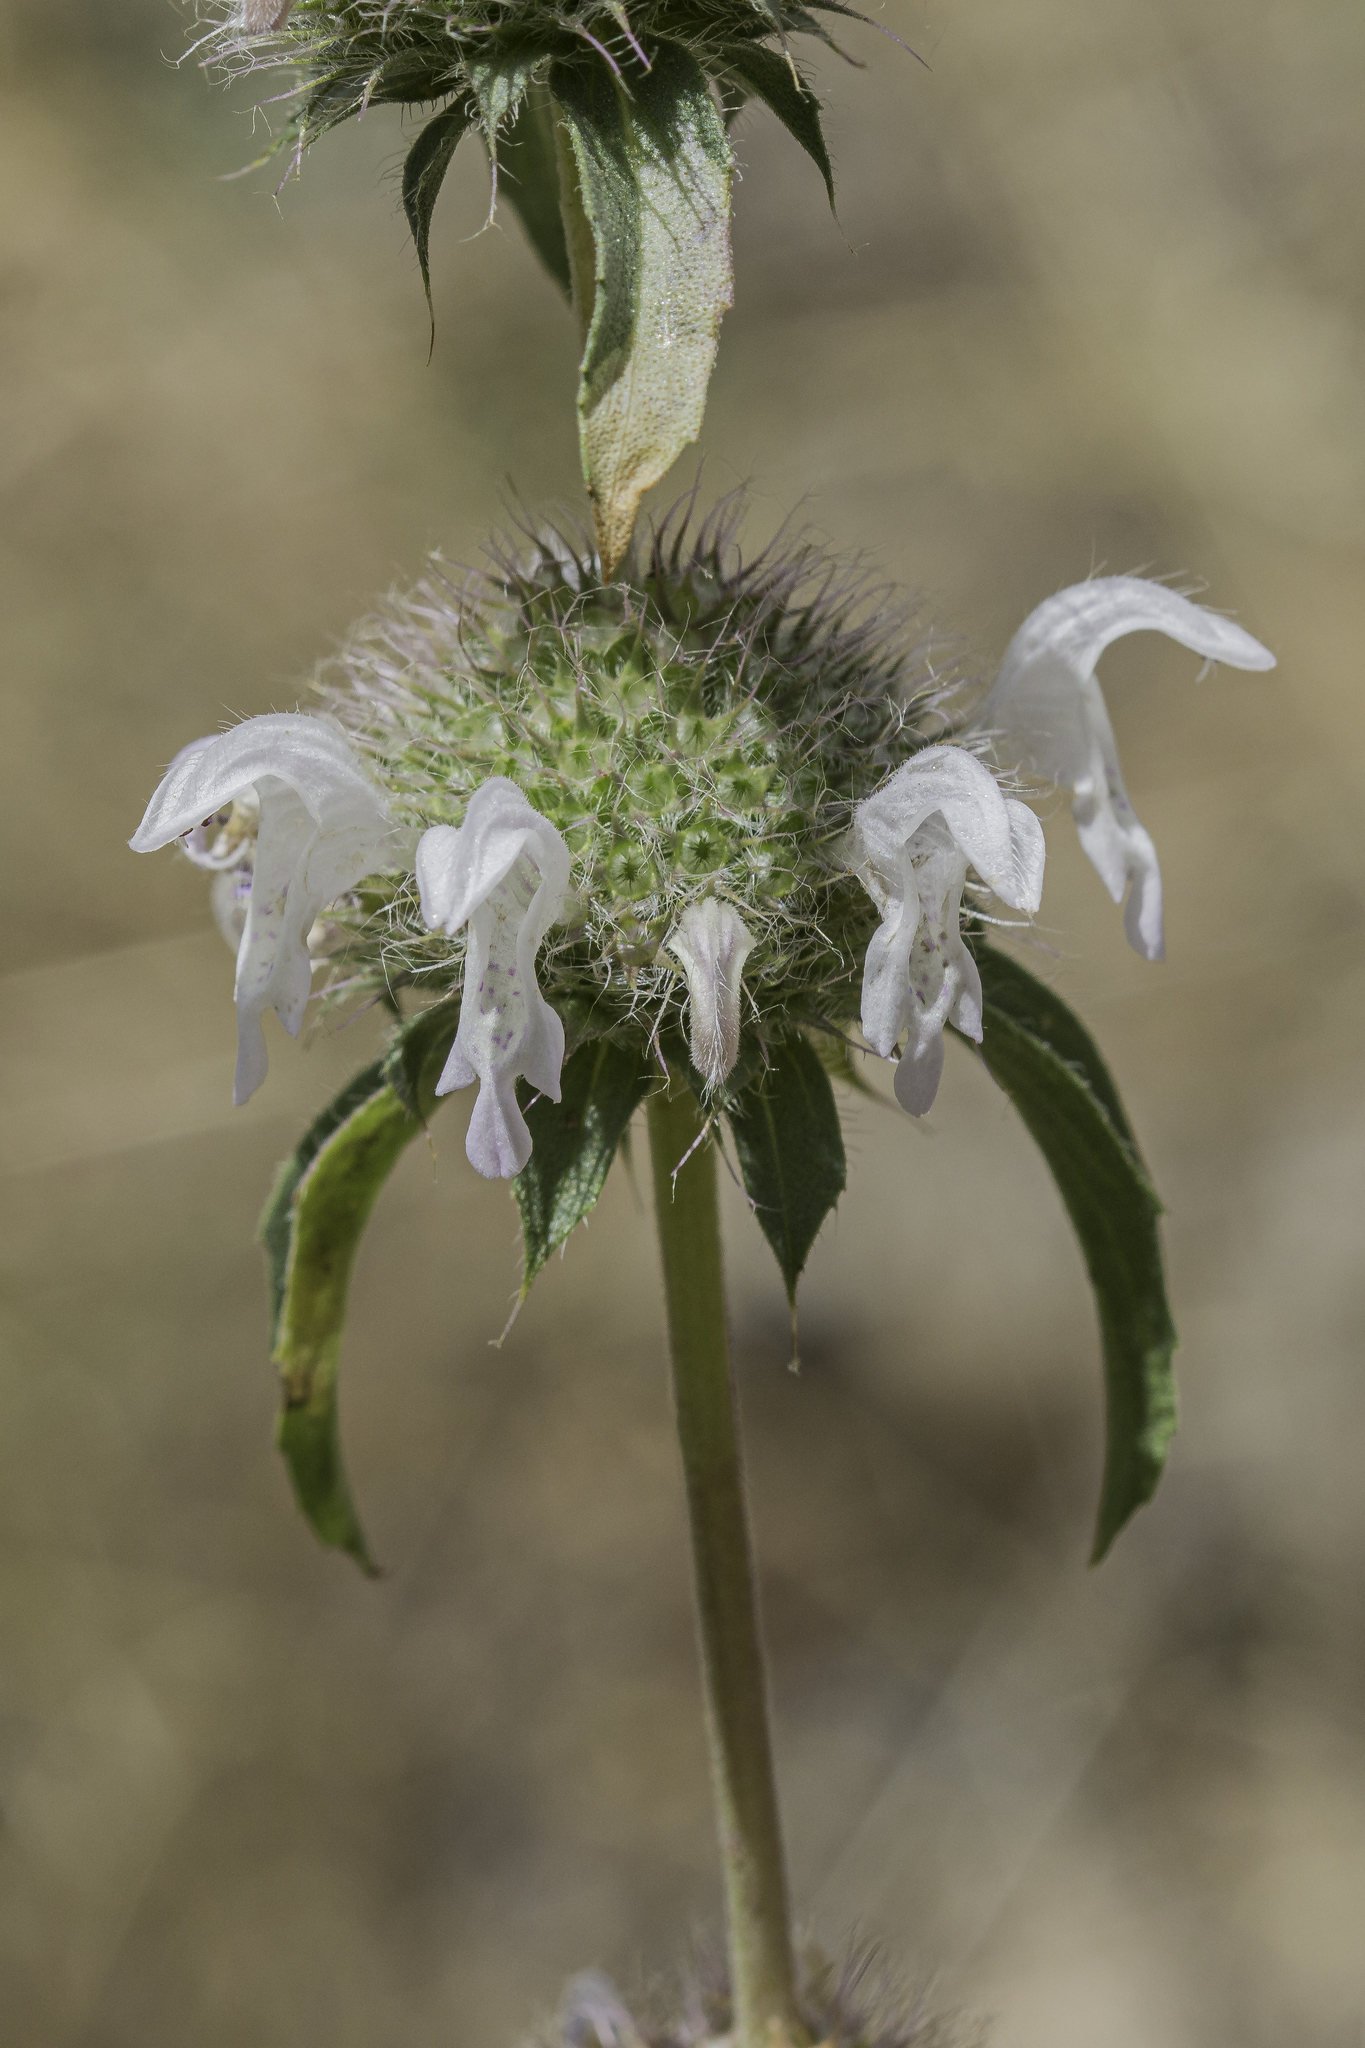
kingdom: Plantae
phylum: Tracheophyta
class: Magnoliopsida
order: Lamiales
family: Lamiaceae
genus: Monarda
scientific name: Monarda pectinata
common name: Plains beebalm
